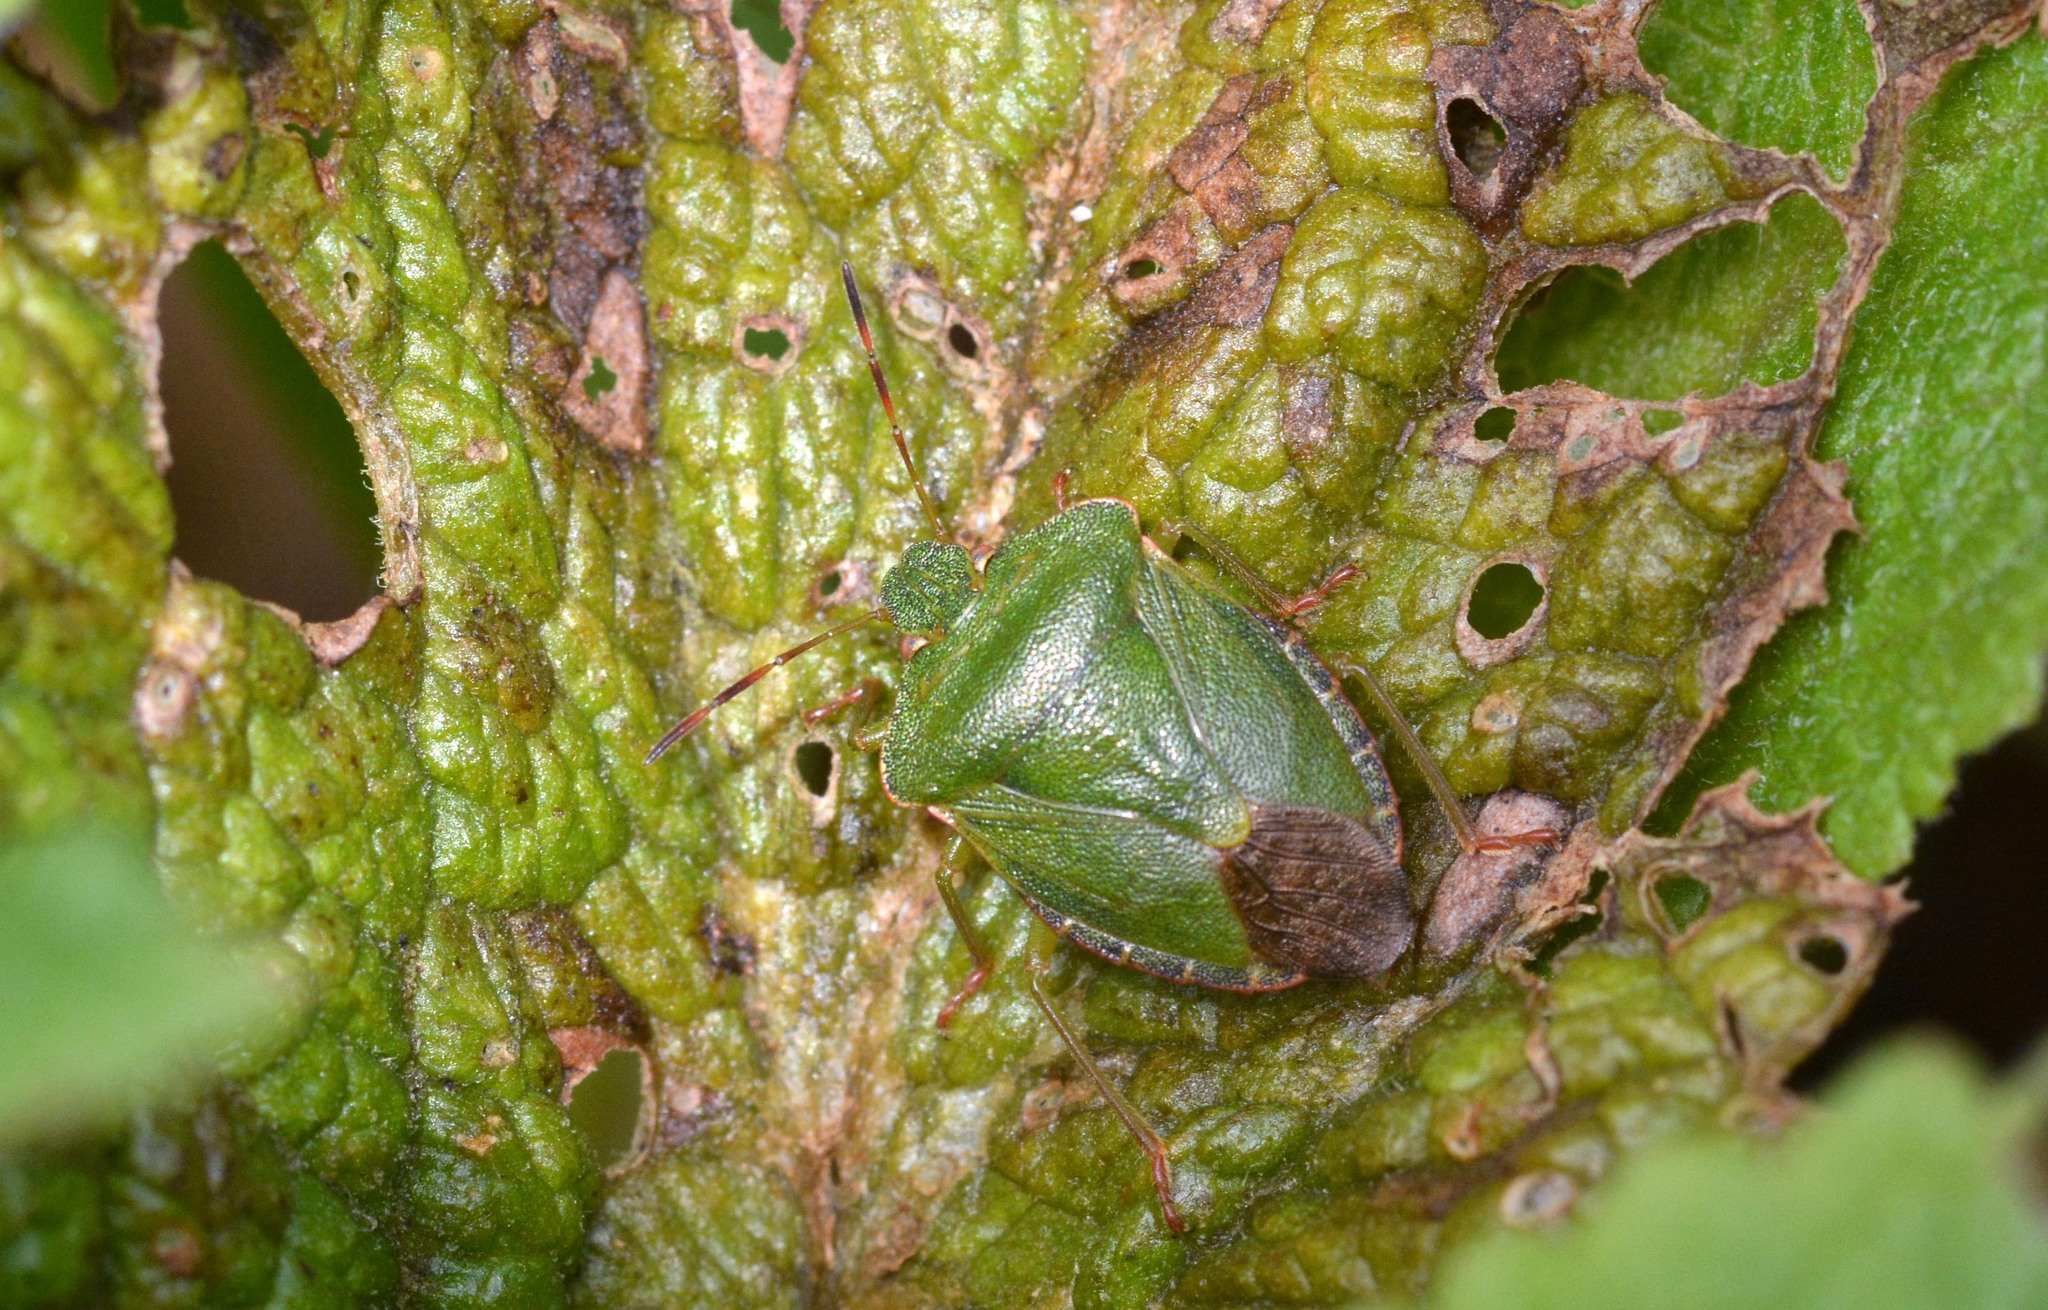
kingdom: Animalia
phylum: Arthropoda
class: Insecta
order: Hemiptera
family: Pentatomidae
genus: Palomena
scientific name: Palomena prasina
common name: Green shieldbug
